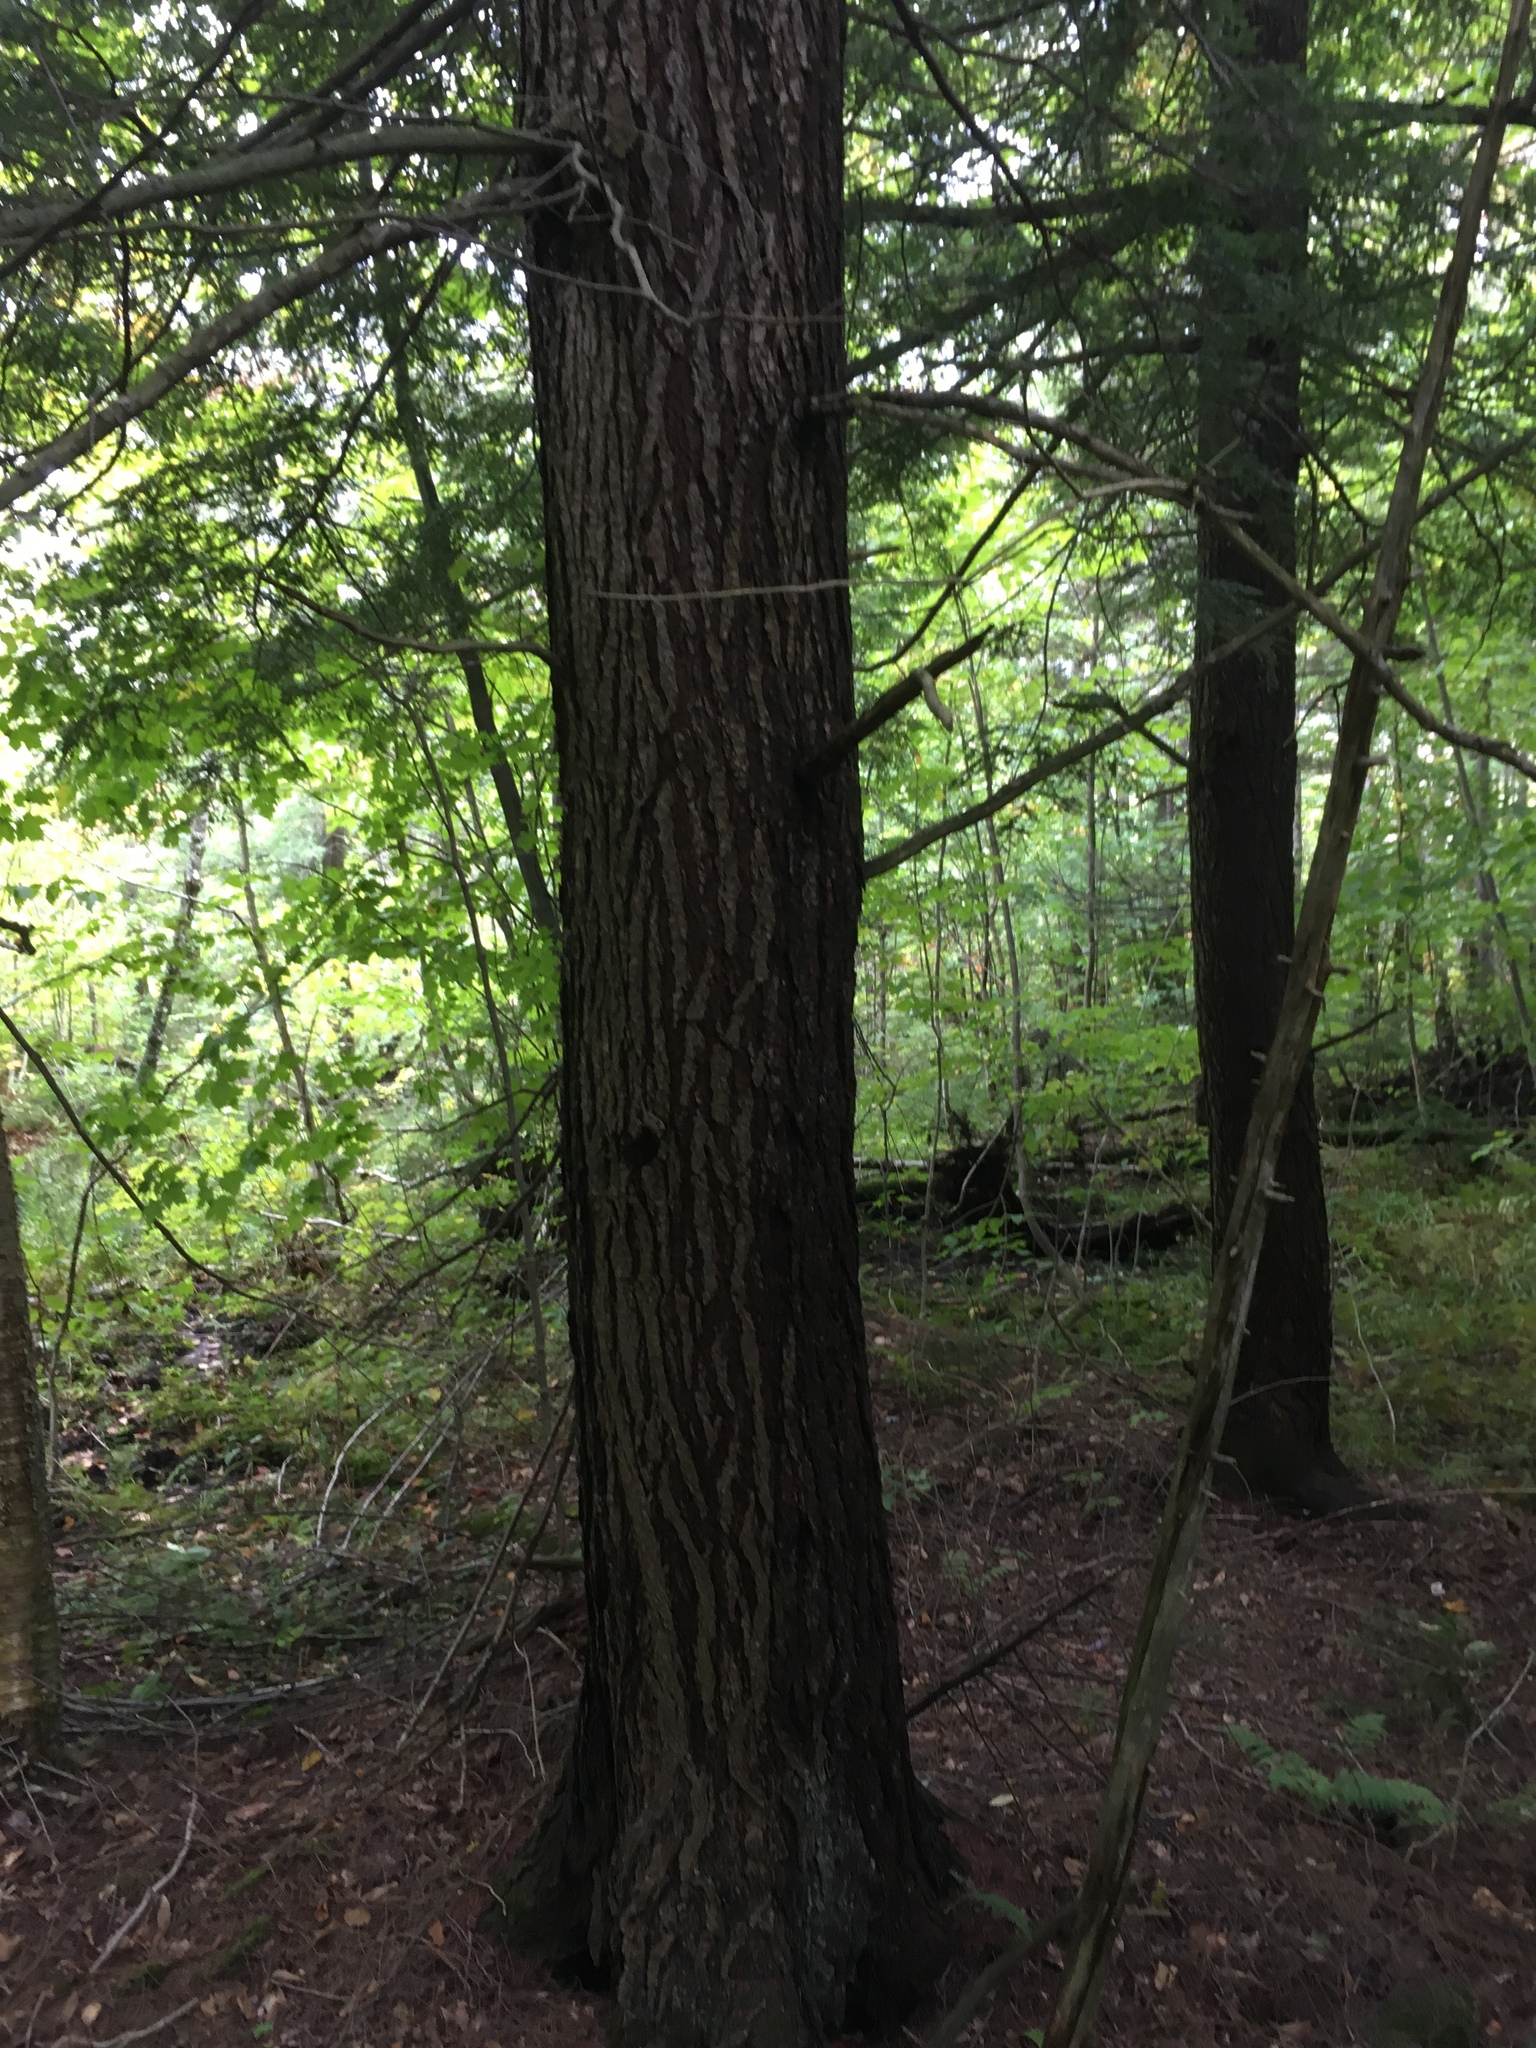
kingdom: Plantae
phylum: Tracheophyta
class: Pinopsida
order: Pinales
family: Pinaceae
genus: Tsuga
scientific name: Tsuga canadensis
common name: Eastern hemlock
